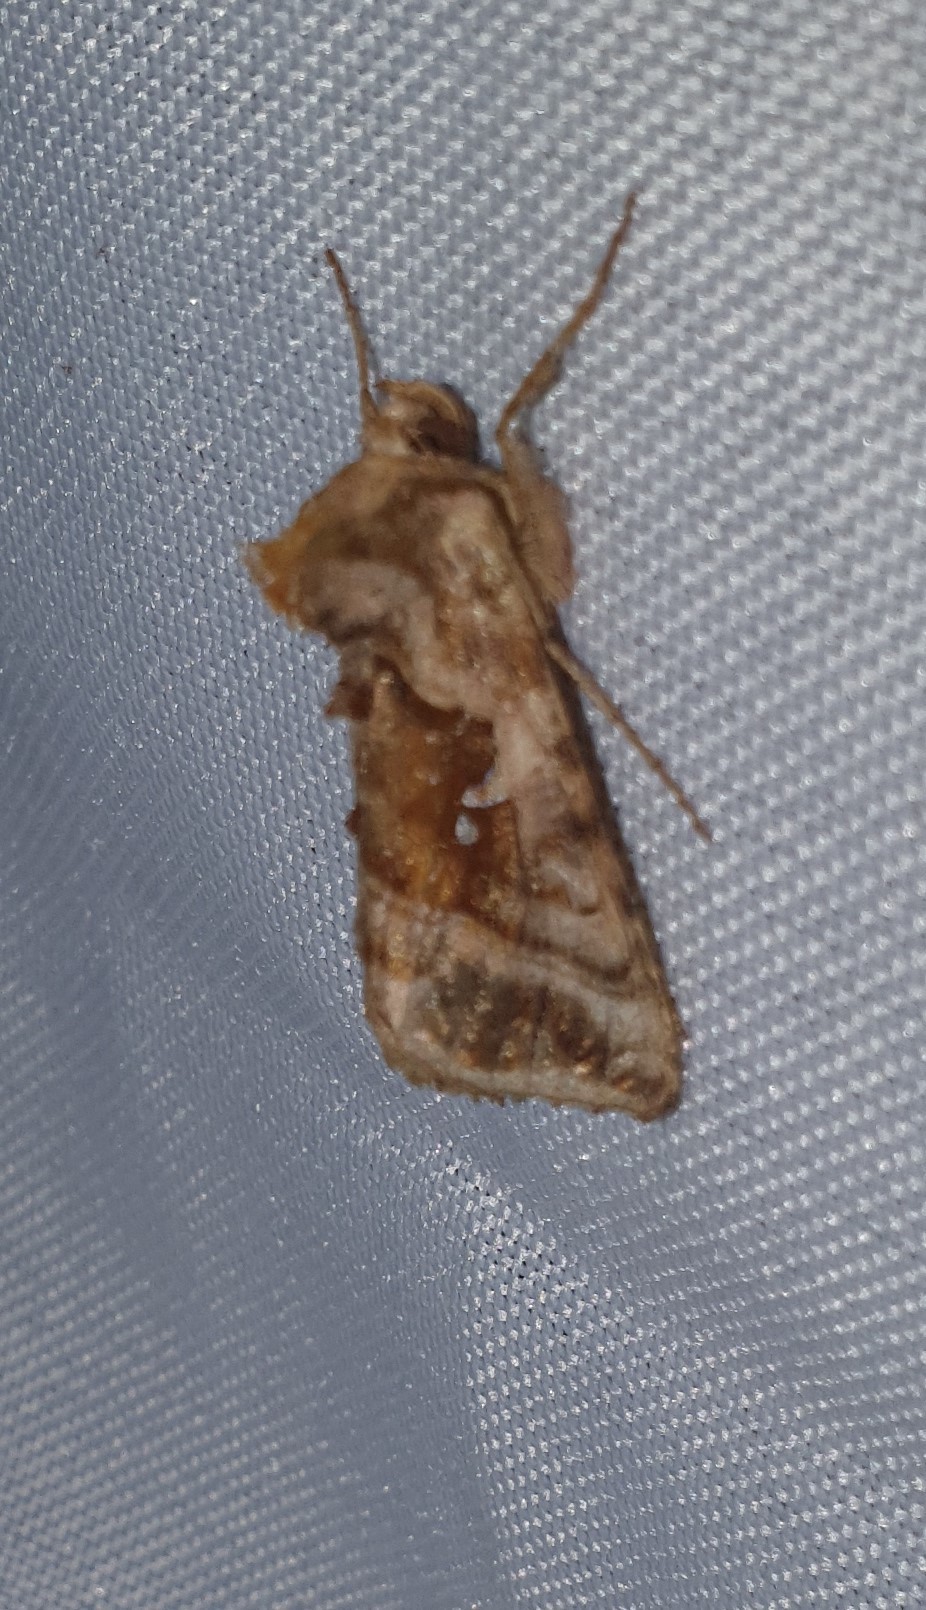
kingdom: Animalia
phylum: Arthropoda
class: Insecta
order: Lepidoptera
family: Noctuidae
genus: Autographa
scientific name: Autographa jota
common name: Plain golden y
